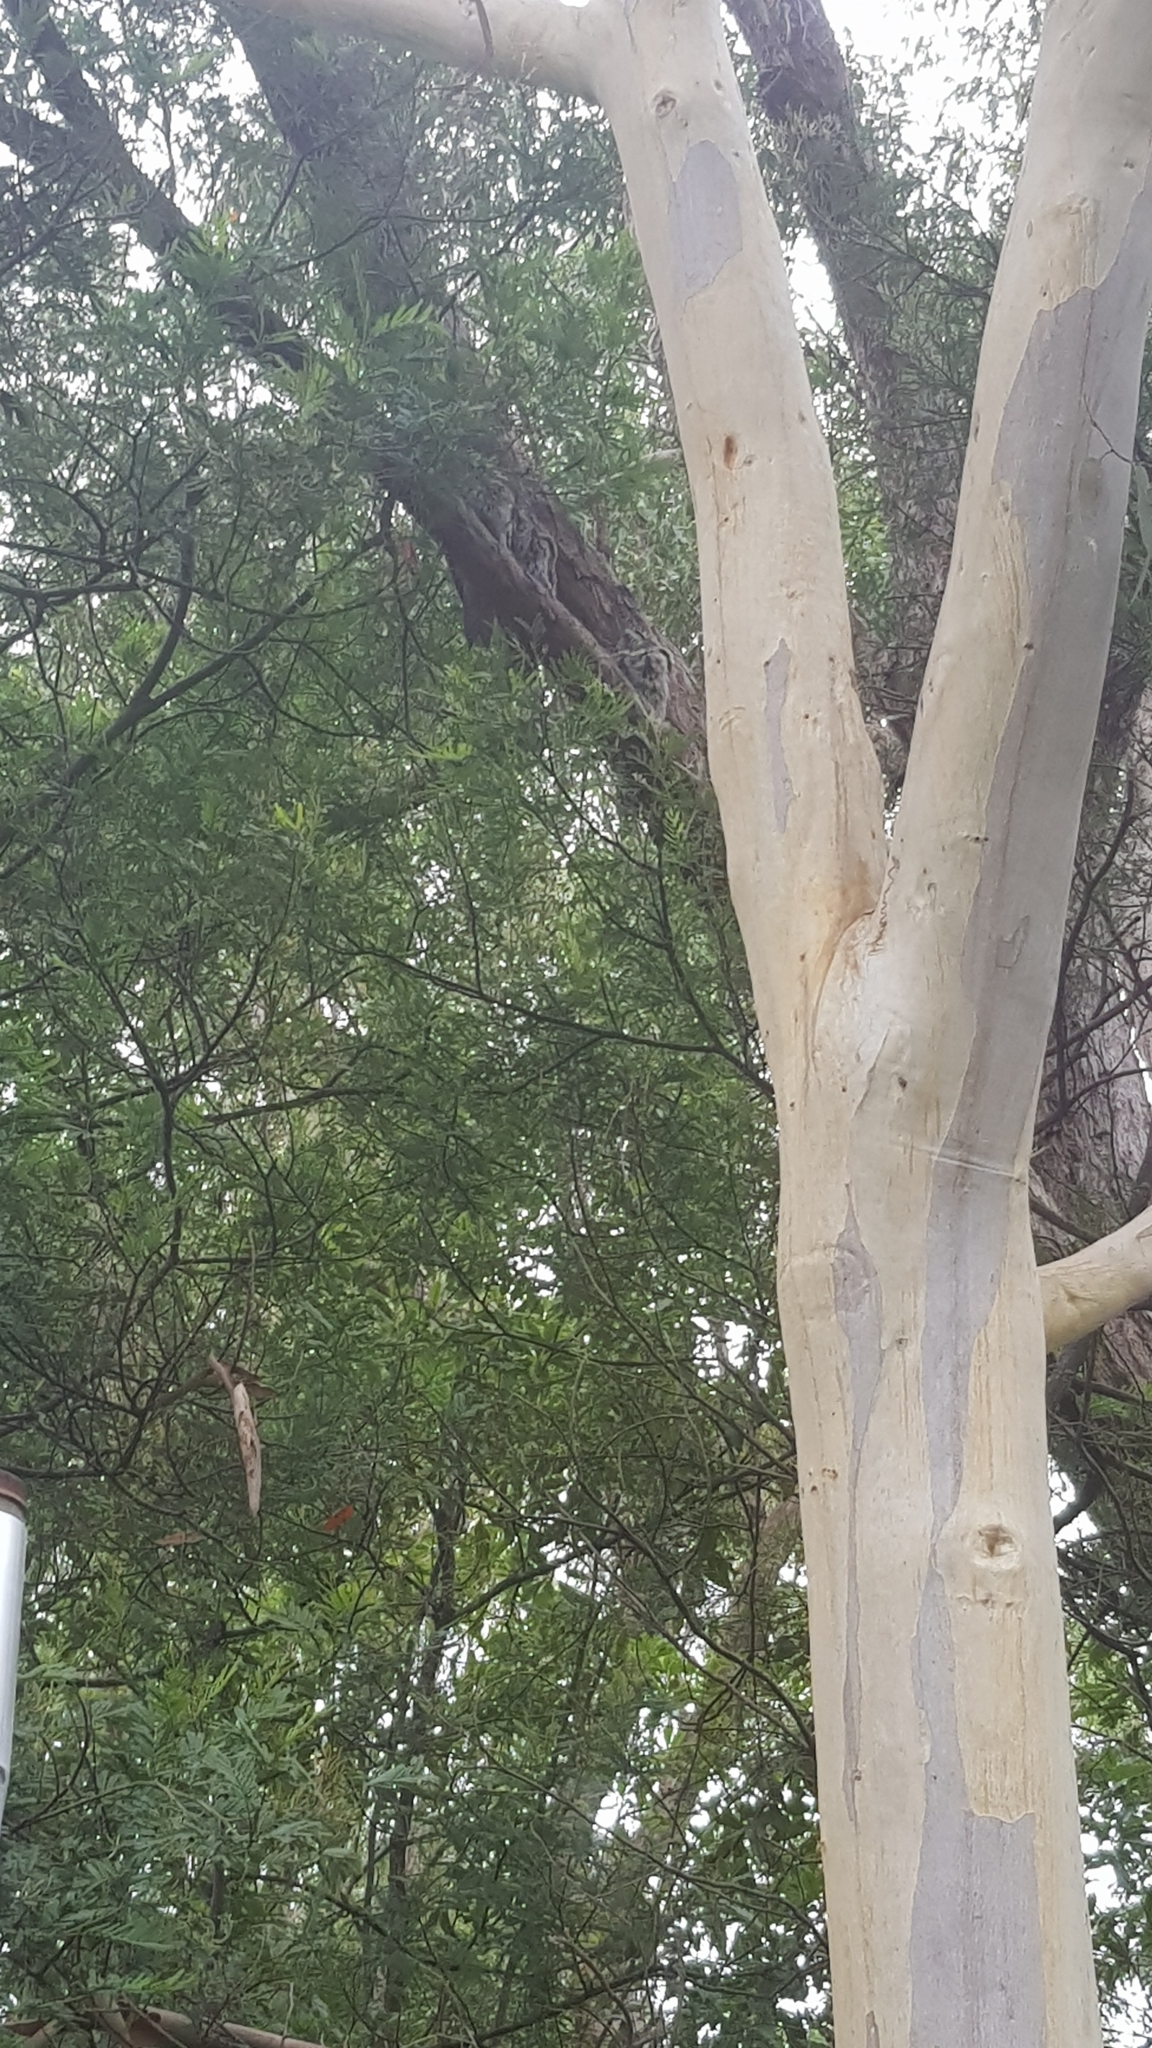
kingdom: Animalia
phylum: Chordata
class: Aves
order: Caprimulgiformes
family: Podargidae
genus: Podargus
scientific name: Podargus strigoides
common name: Tawny frogmouth
